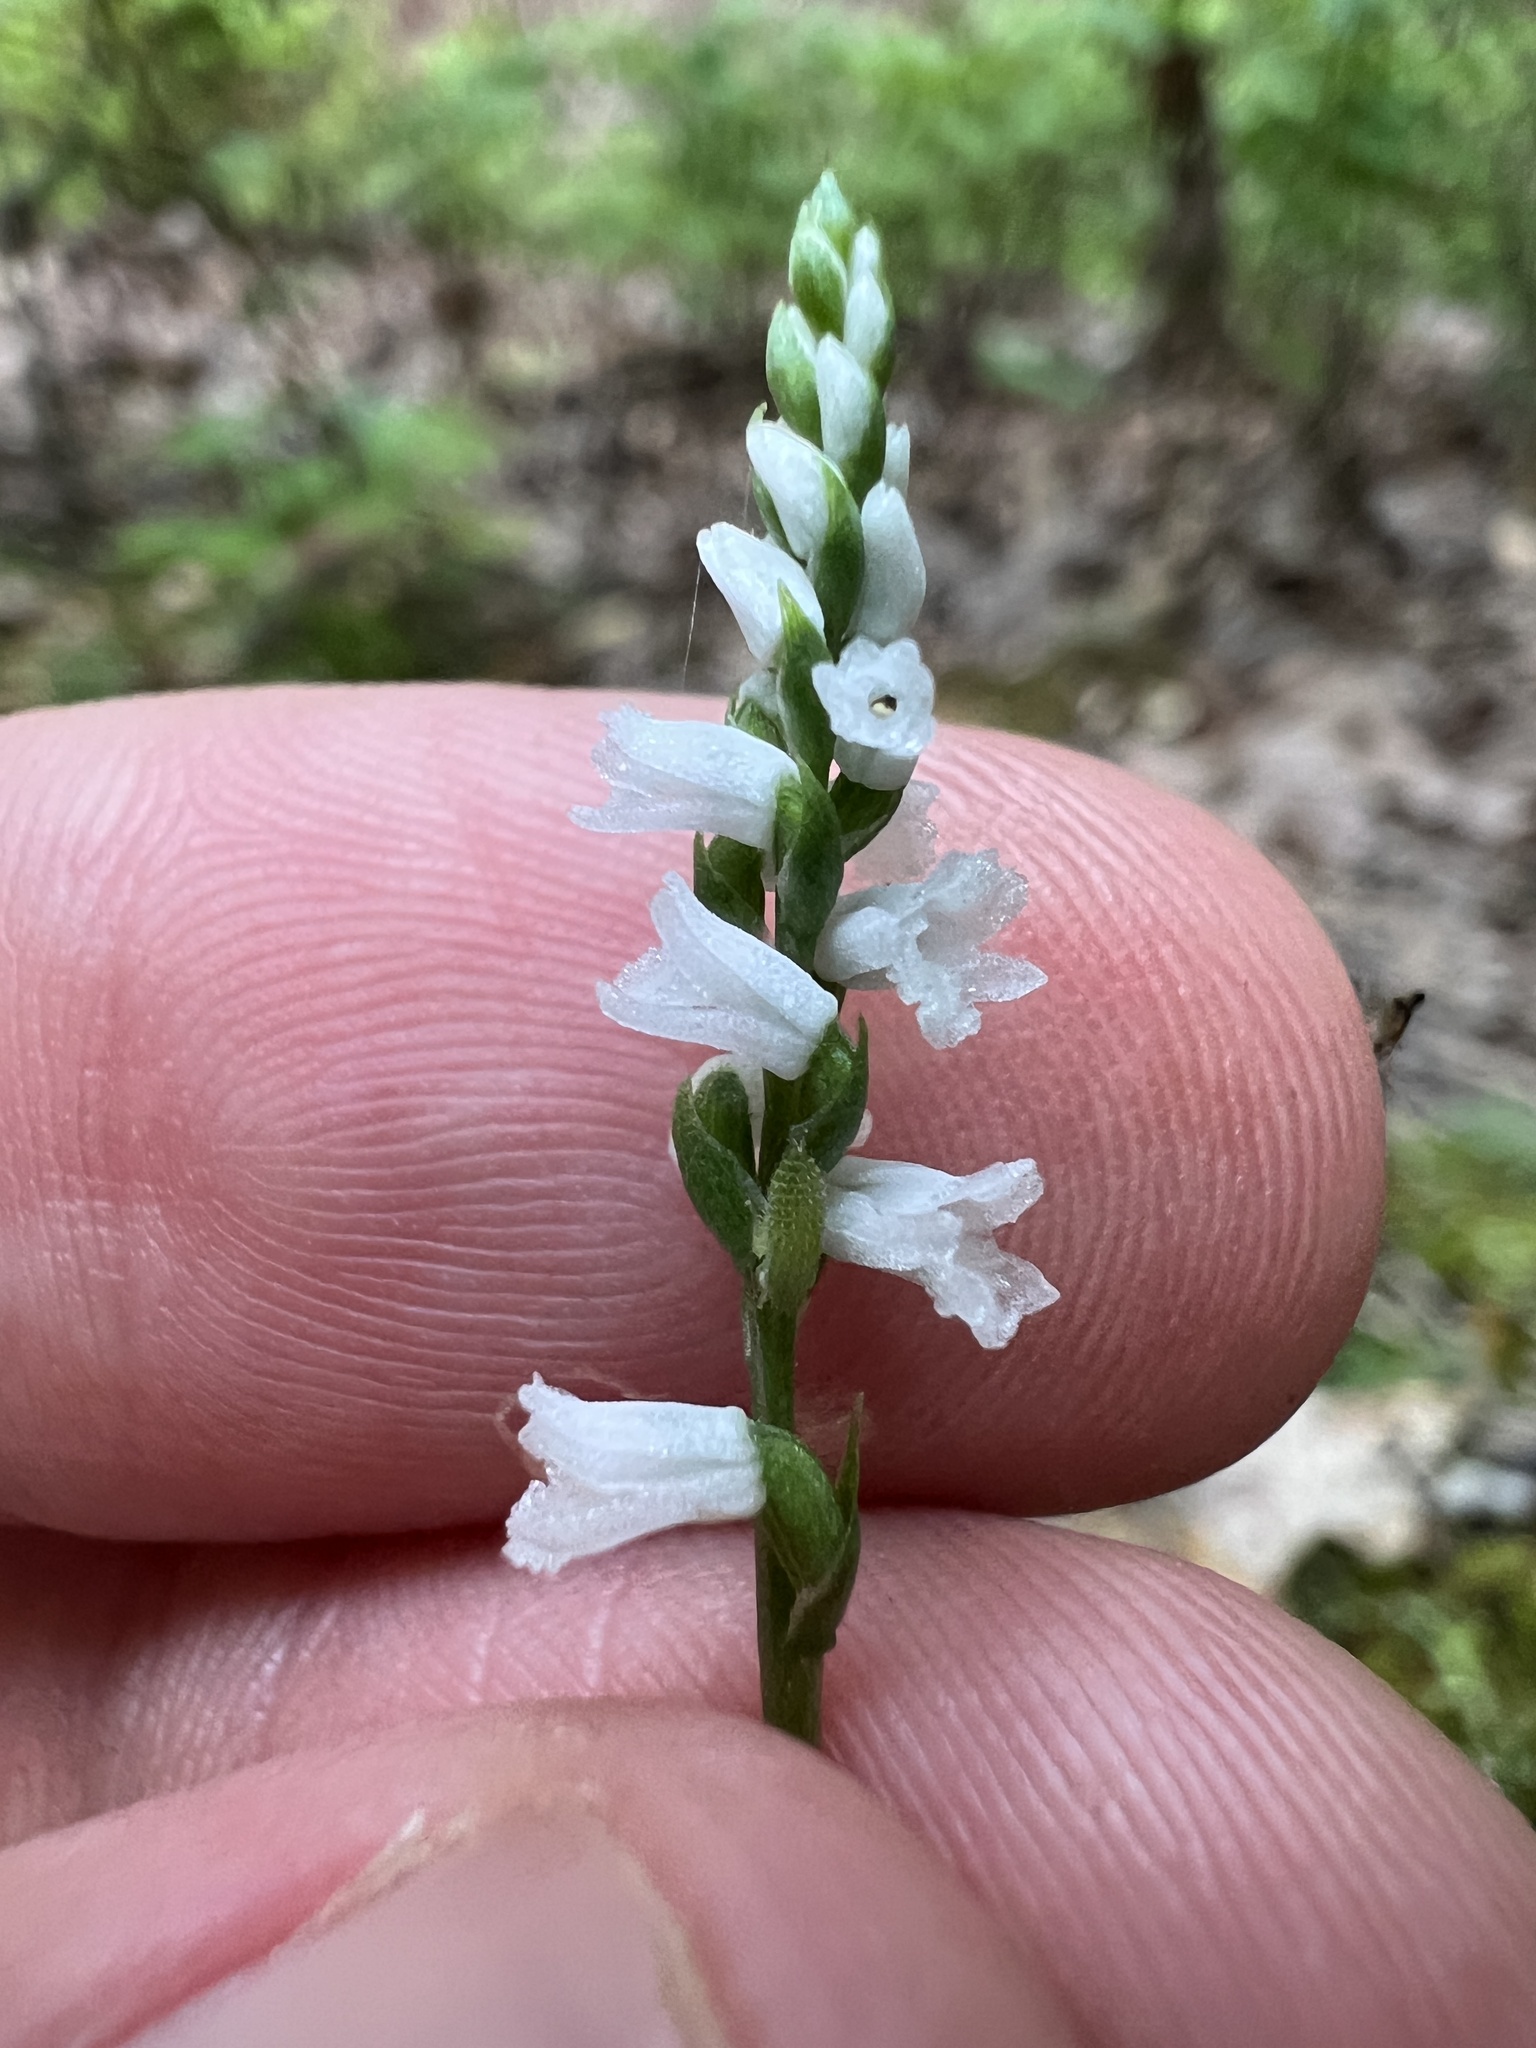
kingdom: Plantae
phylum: Tracheophyta
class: Liliopsida
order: Asparagales
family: Orchidaceae
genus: Spiranthes
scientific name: Spiranthes tuberosa
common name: Little ladies'-tresses
